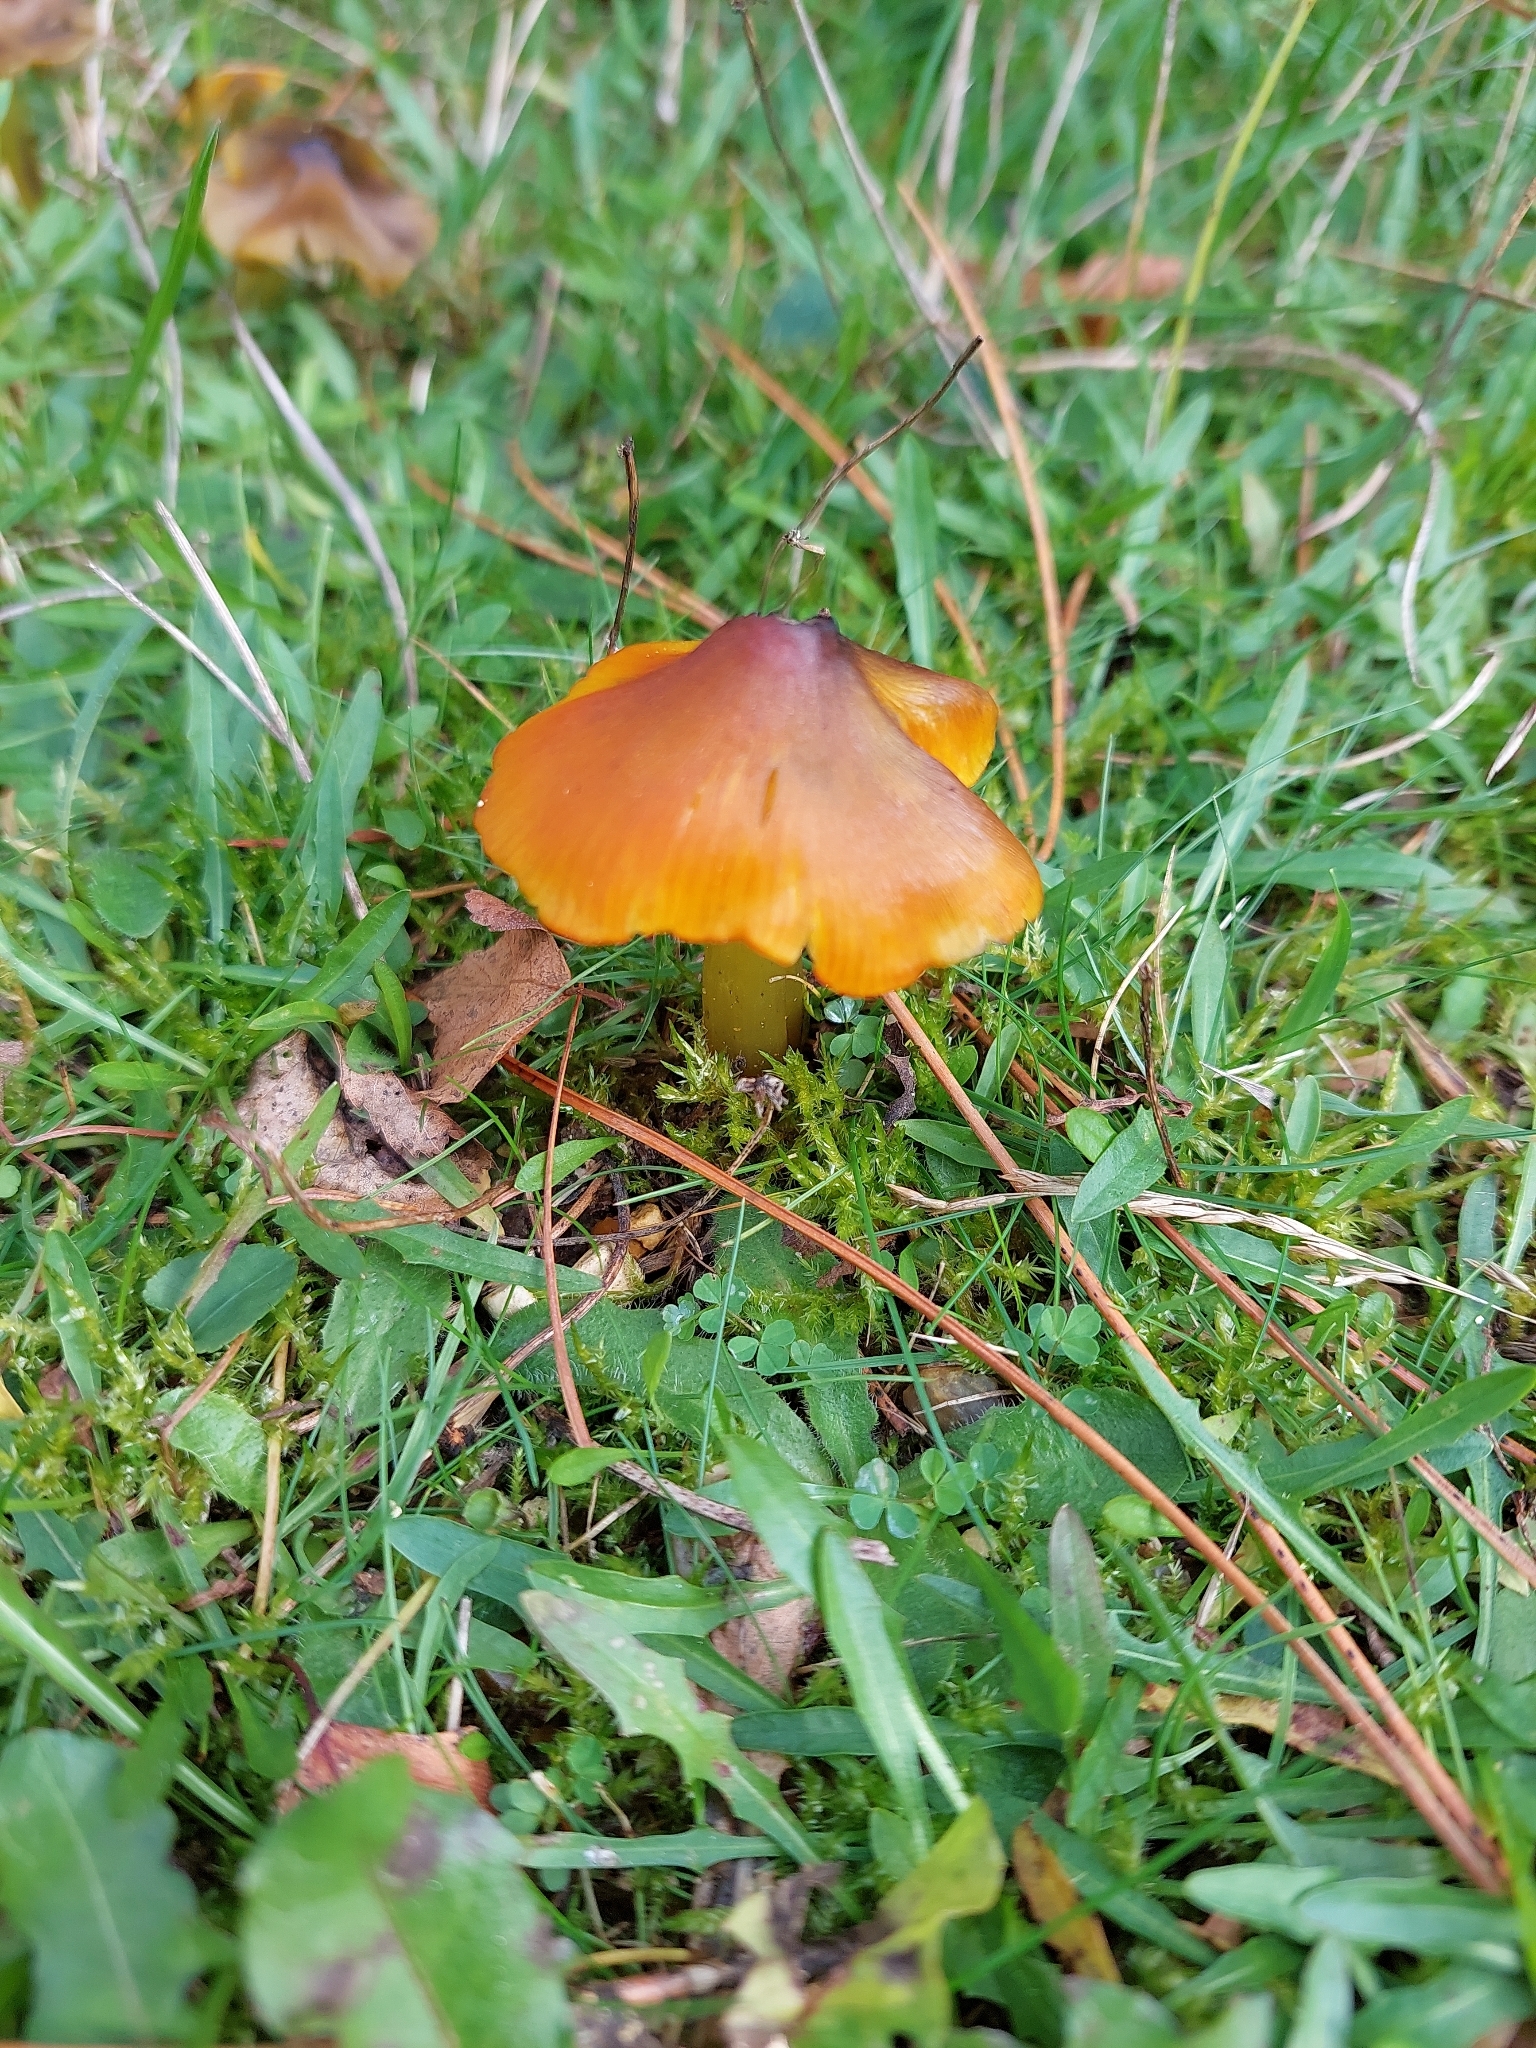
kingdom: Fungi
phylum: Basidiomycota
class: Agaricomycetes
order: Agaricales
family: Hygrophoraceae
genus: Hygrocybe
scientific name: Hygrocybe conica
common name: Blackening wax-cap
